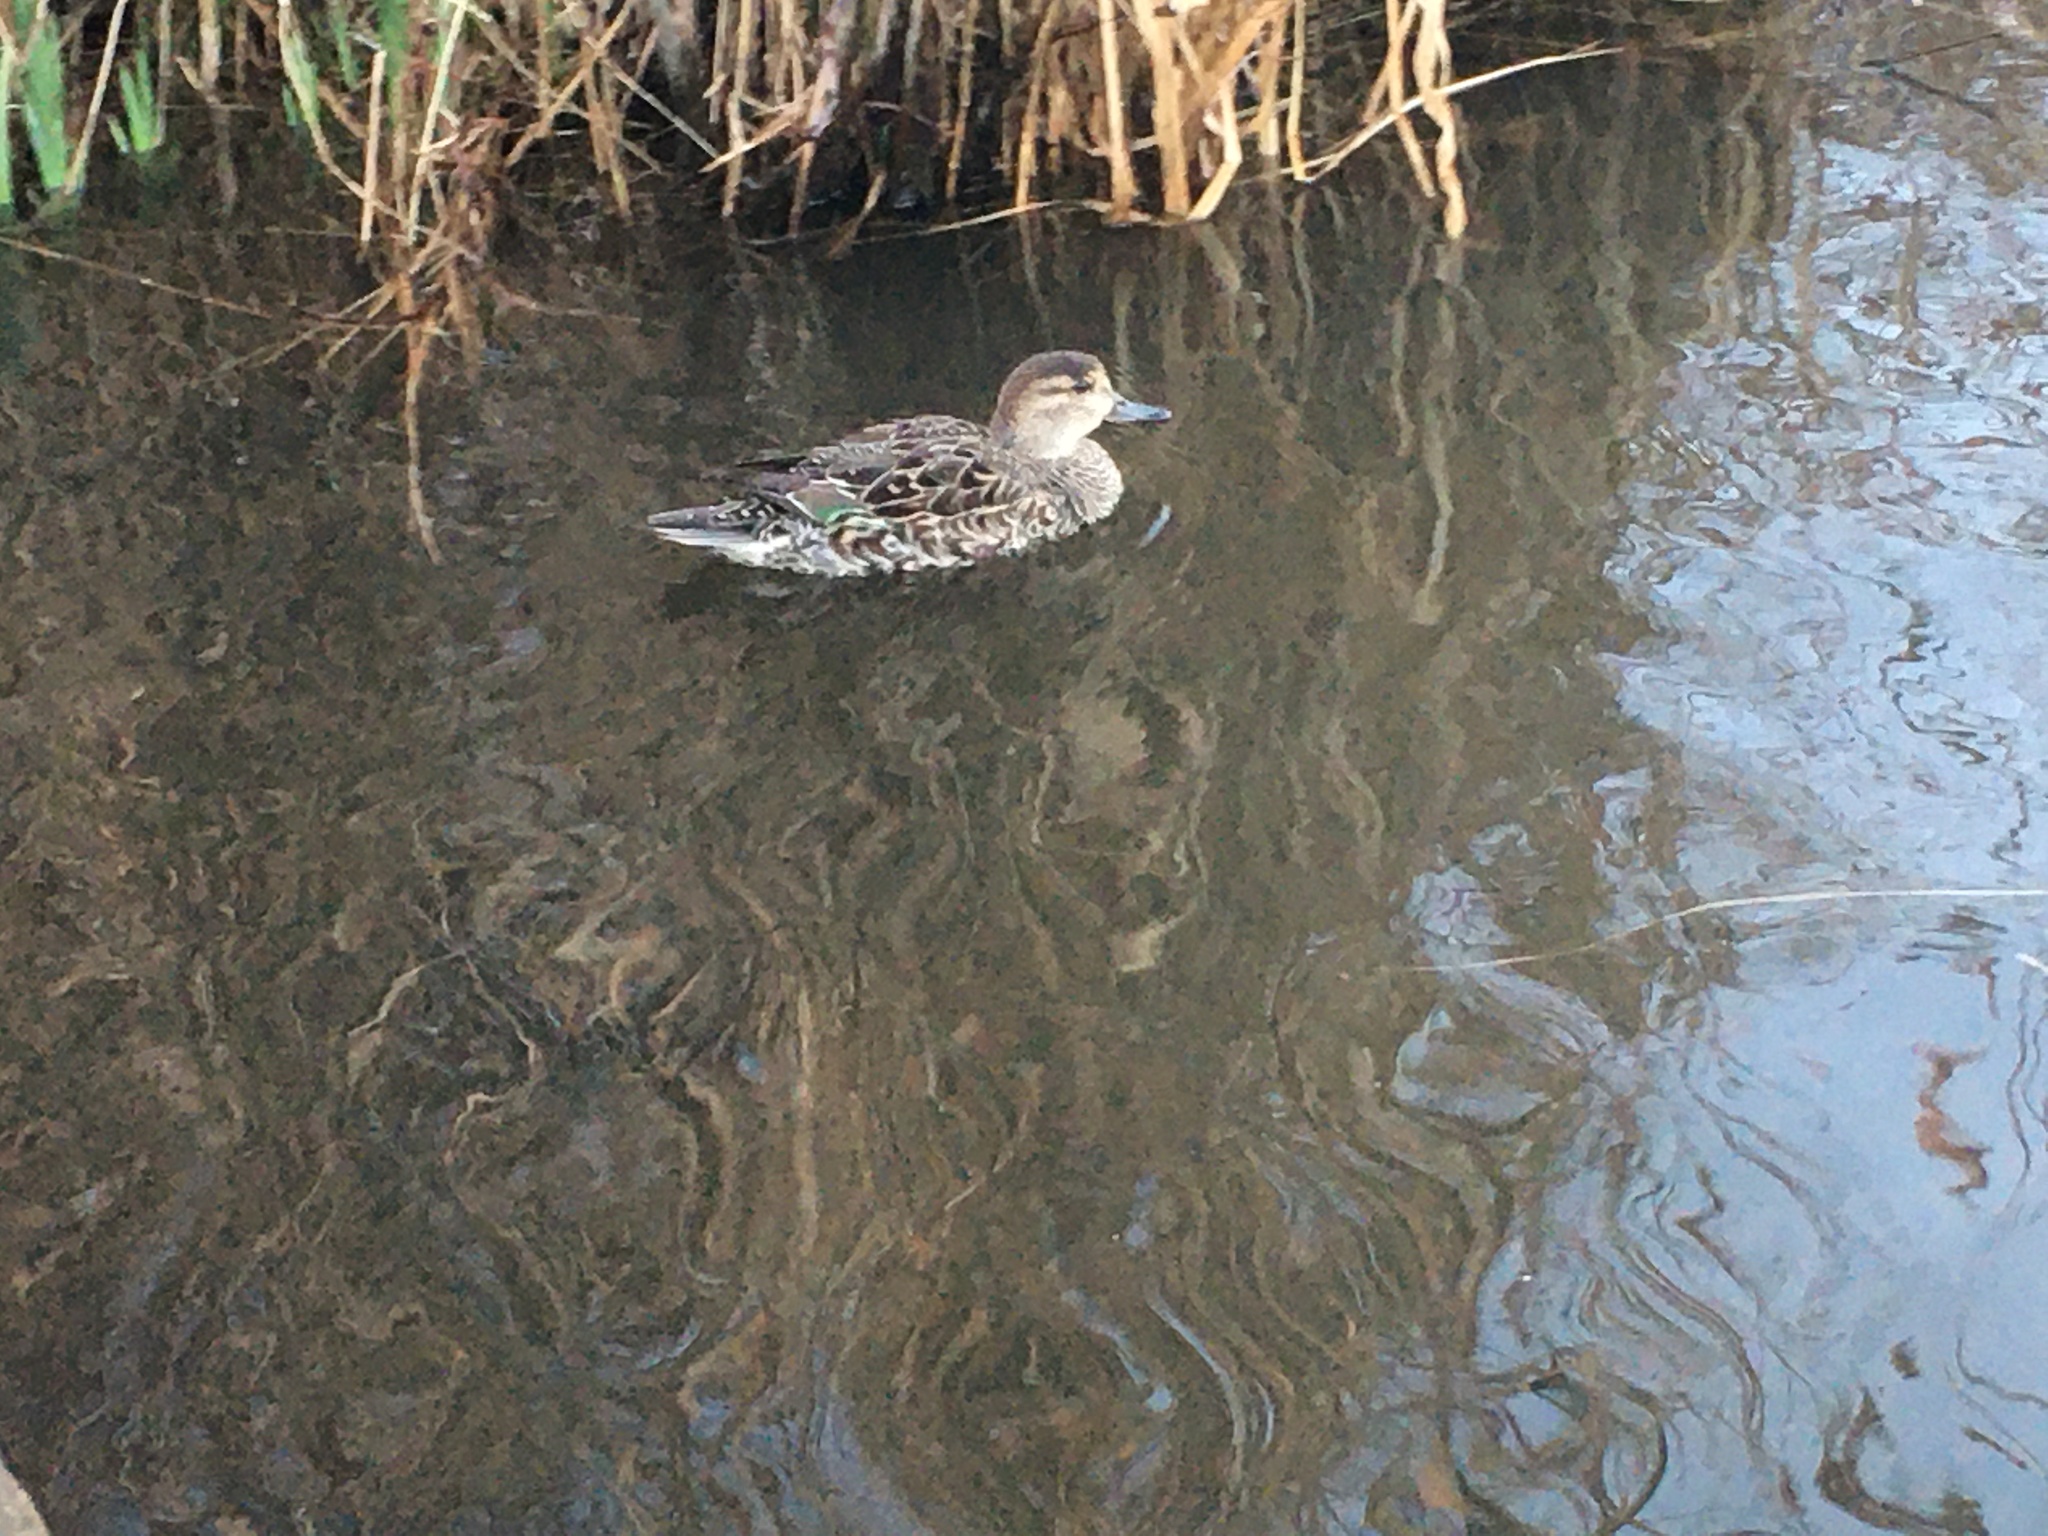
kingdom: Animalia
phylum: Chordata
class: Aves
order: Anseriformes
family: Anatidae
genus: Anas
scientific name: Anas crecca
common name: Eurasian teal
